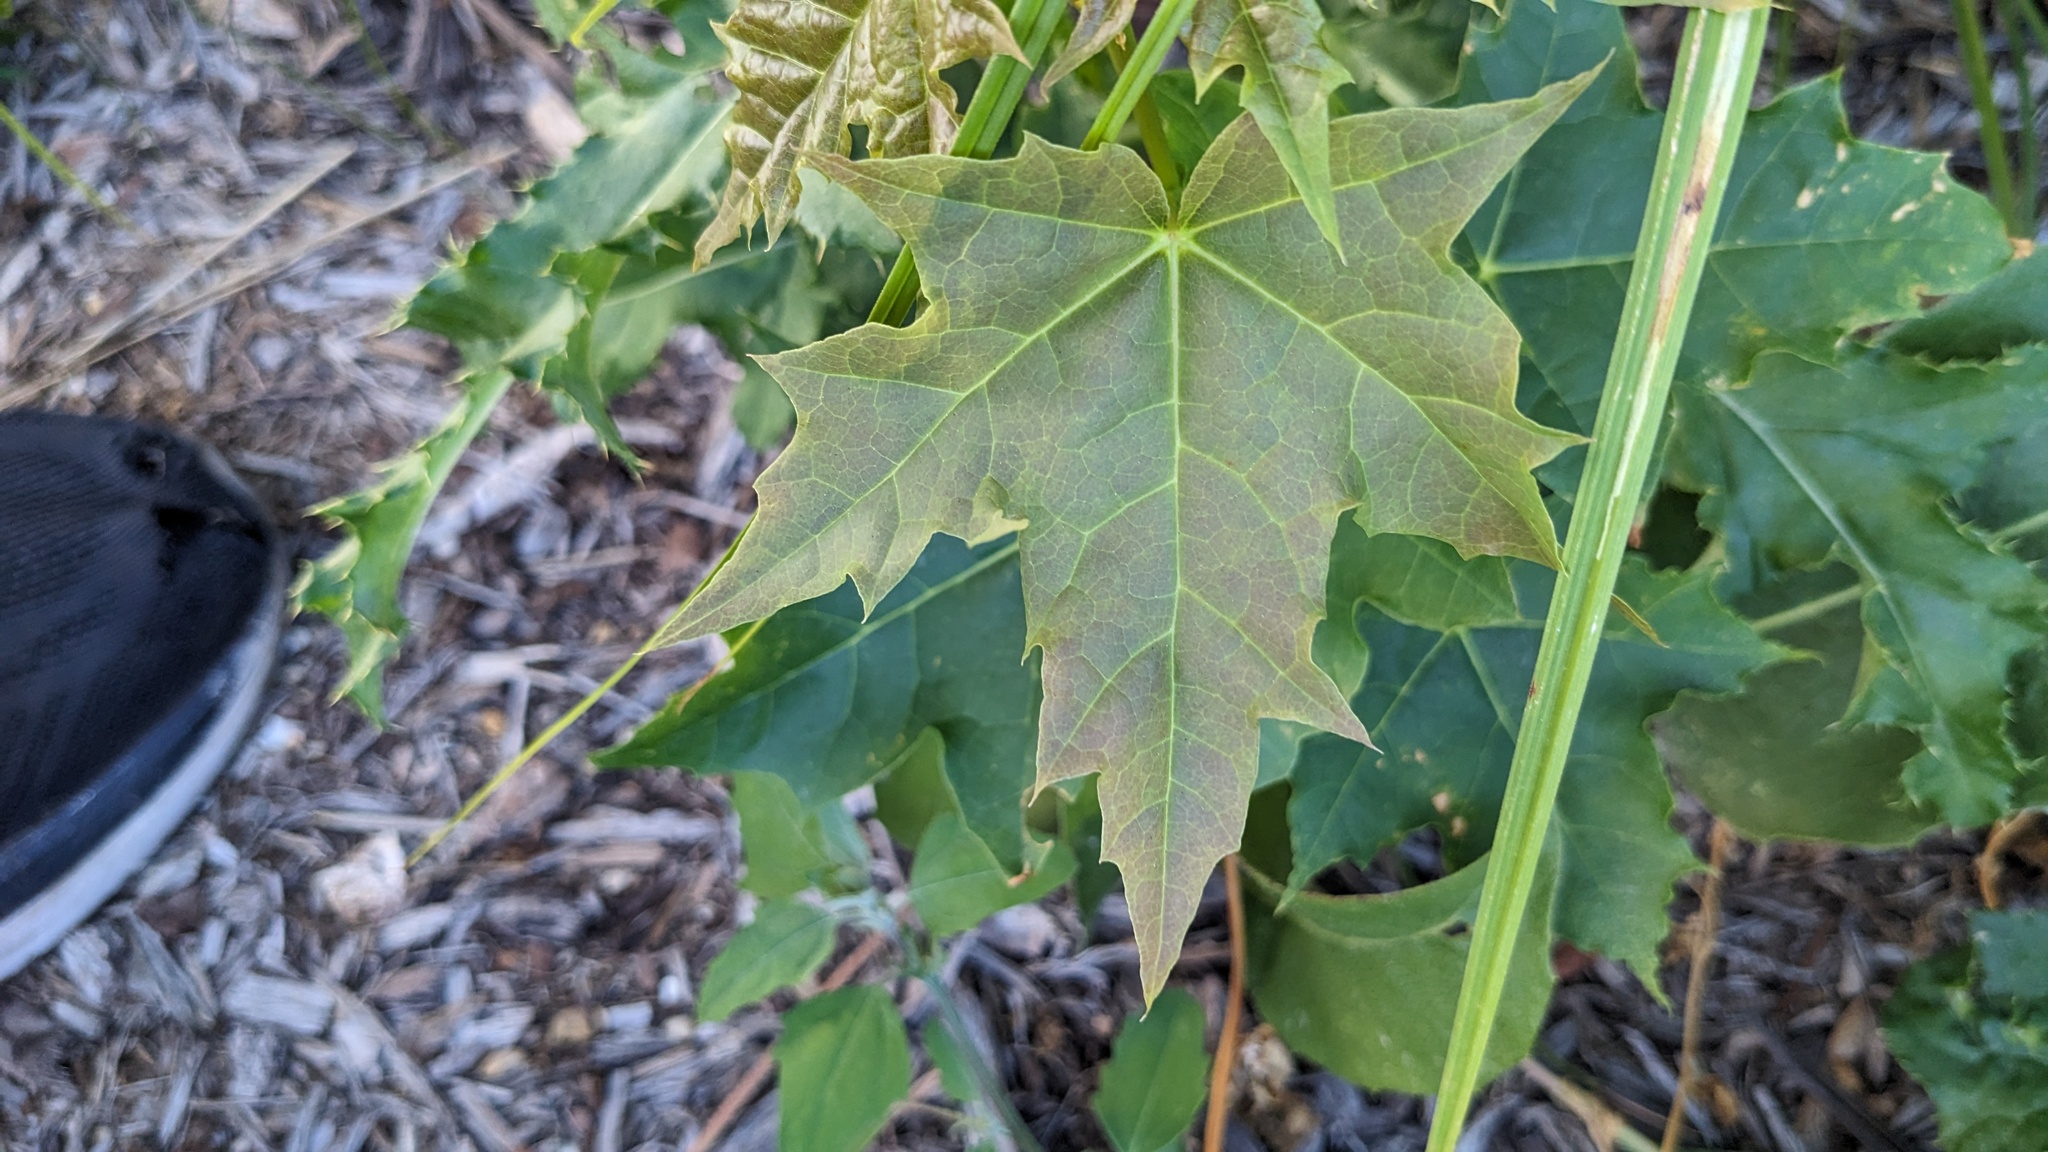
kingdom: Plantae
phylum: Tracheophyta
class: Magnoliopsida
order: Sapindales
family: Sapindaceae
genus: Acer
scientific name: Acer platanoides
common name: Norway maple
